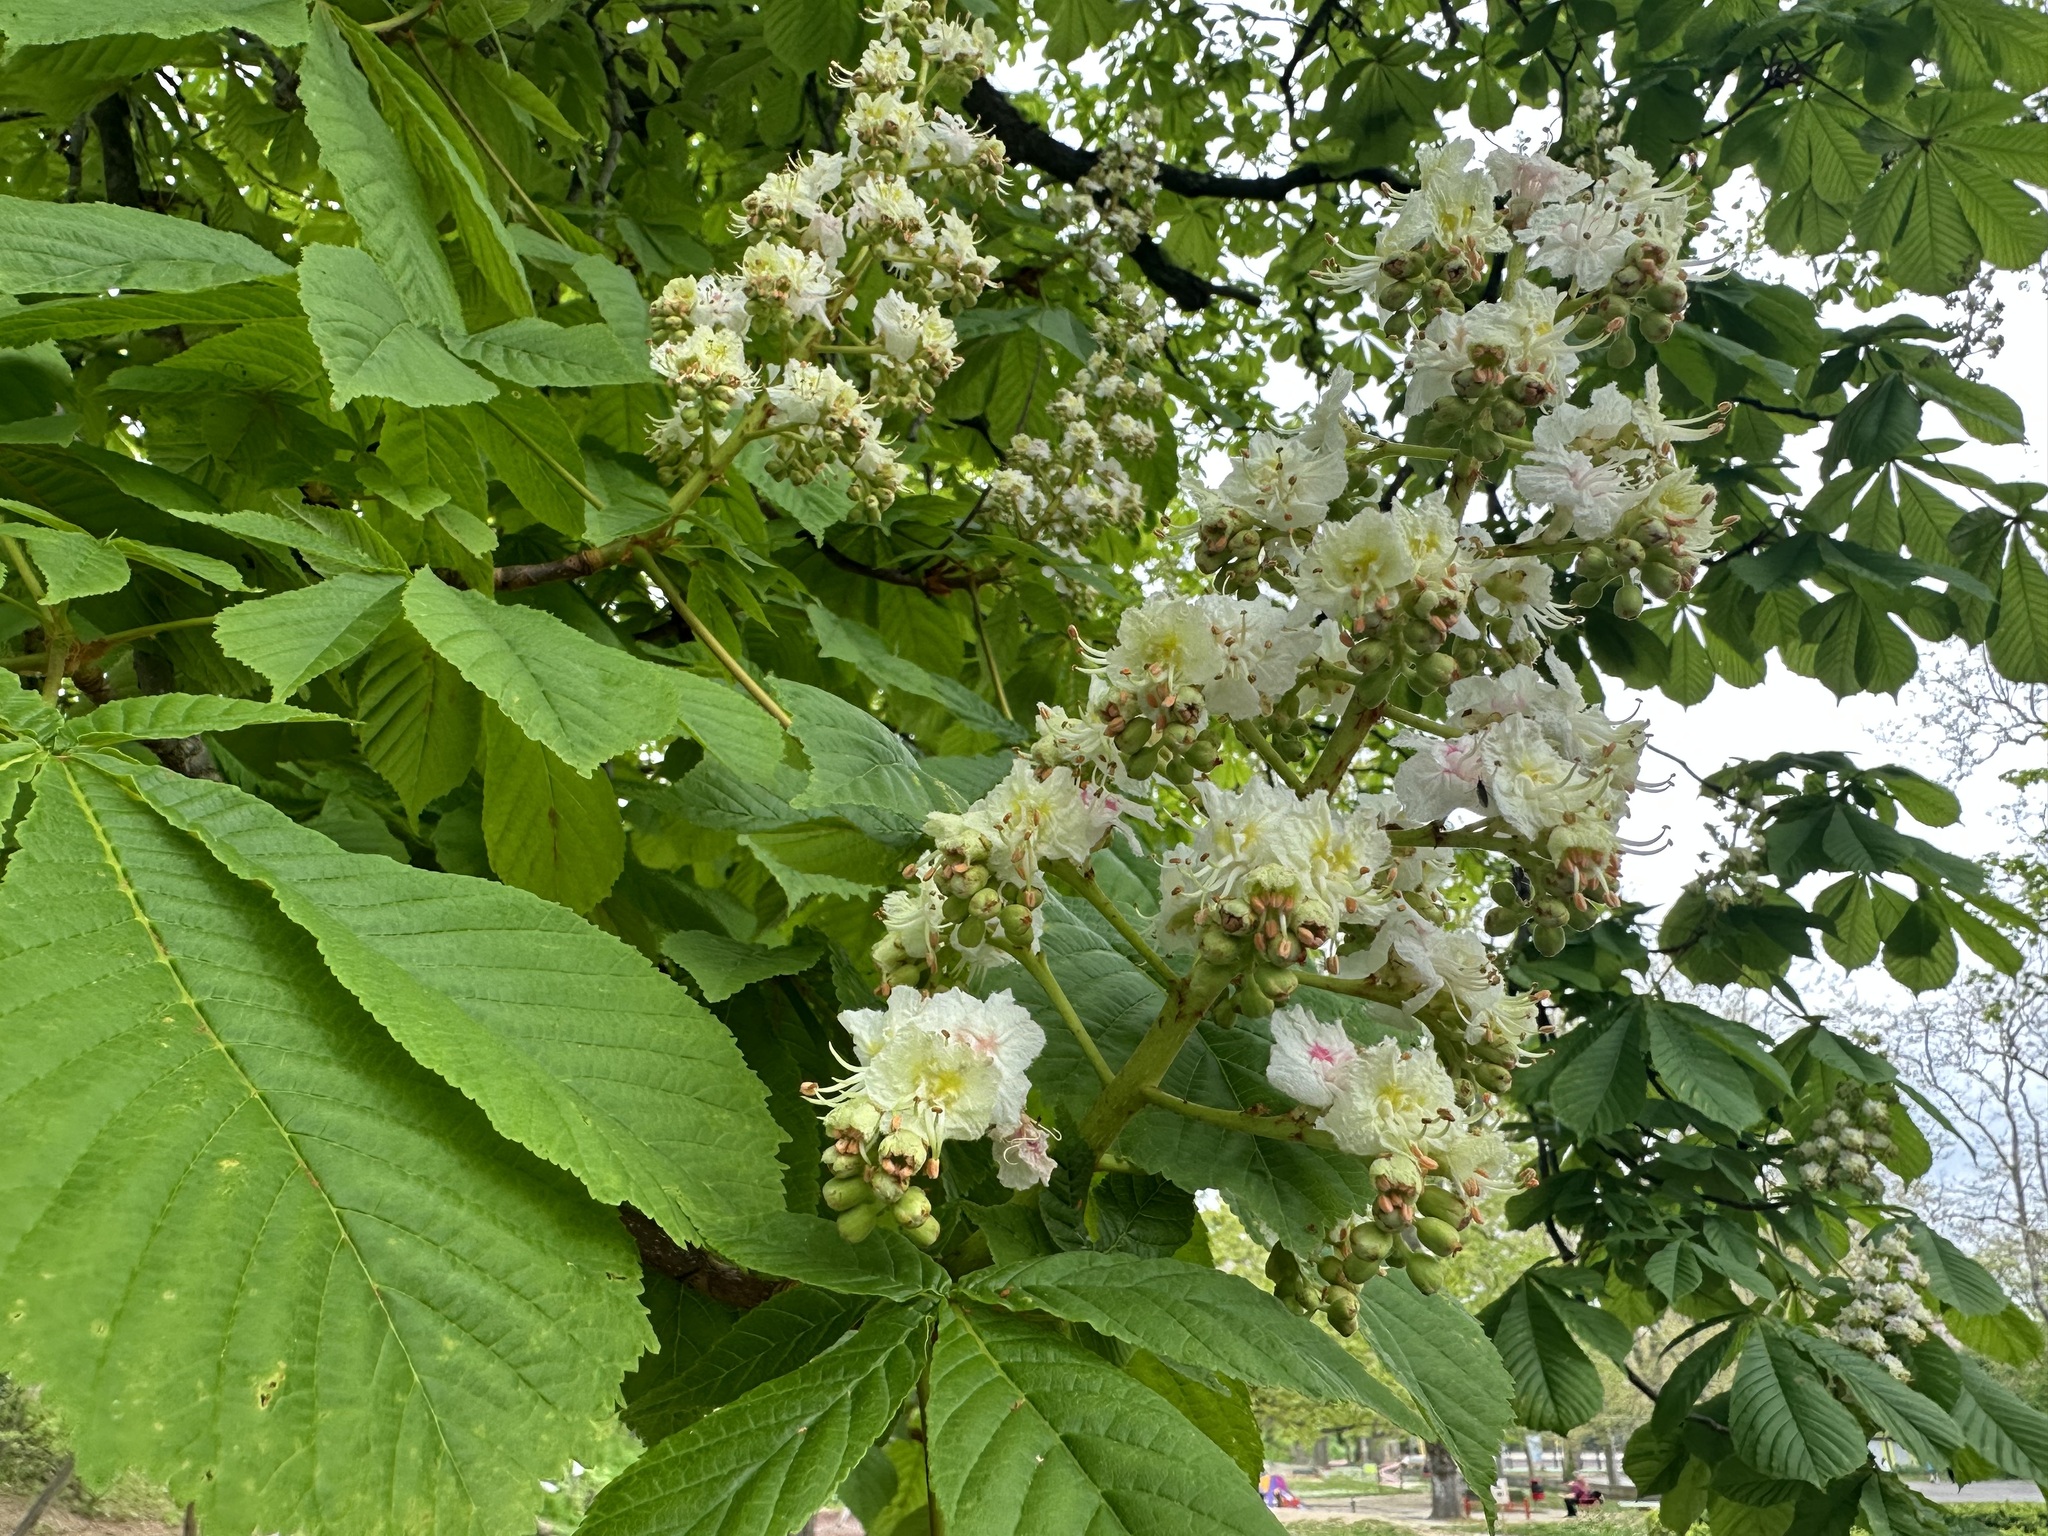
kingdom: Plantae
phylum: Tracheophyta
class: Magnoliopsida
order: Sapindales
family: Sapindaceae
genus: Aesculus
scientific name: Aesculus hippocastanum
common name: Horse-chestnut
